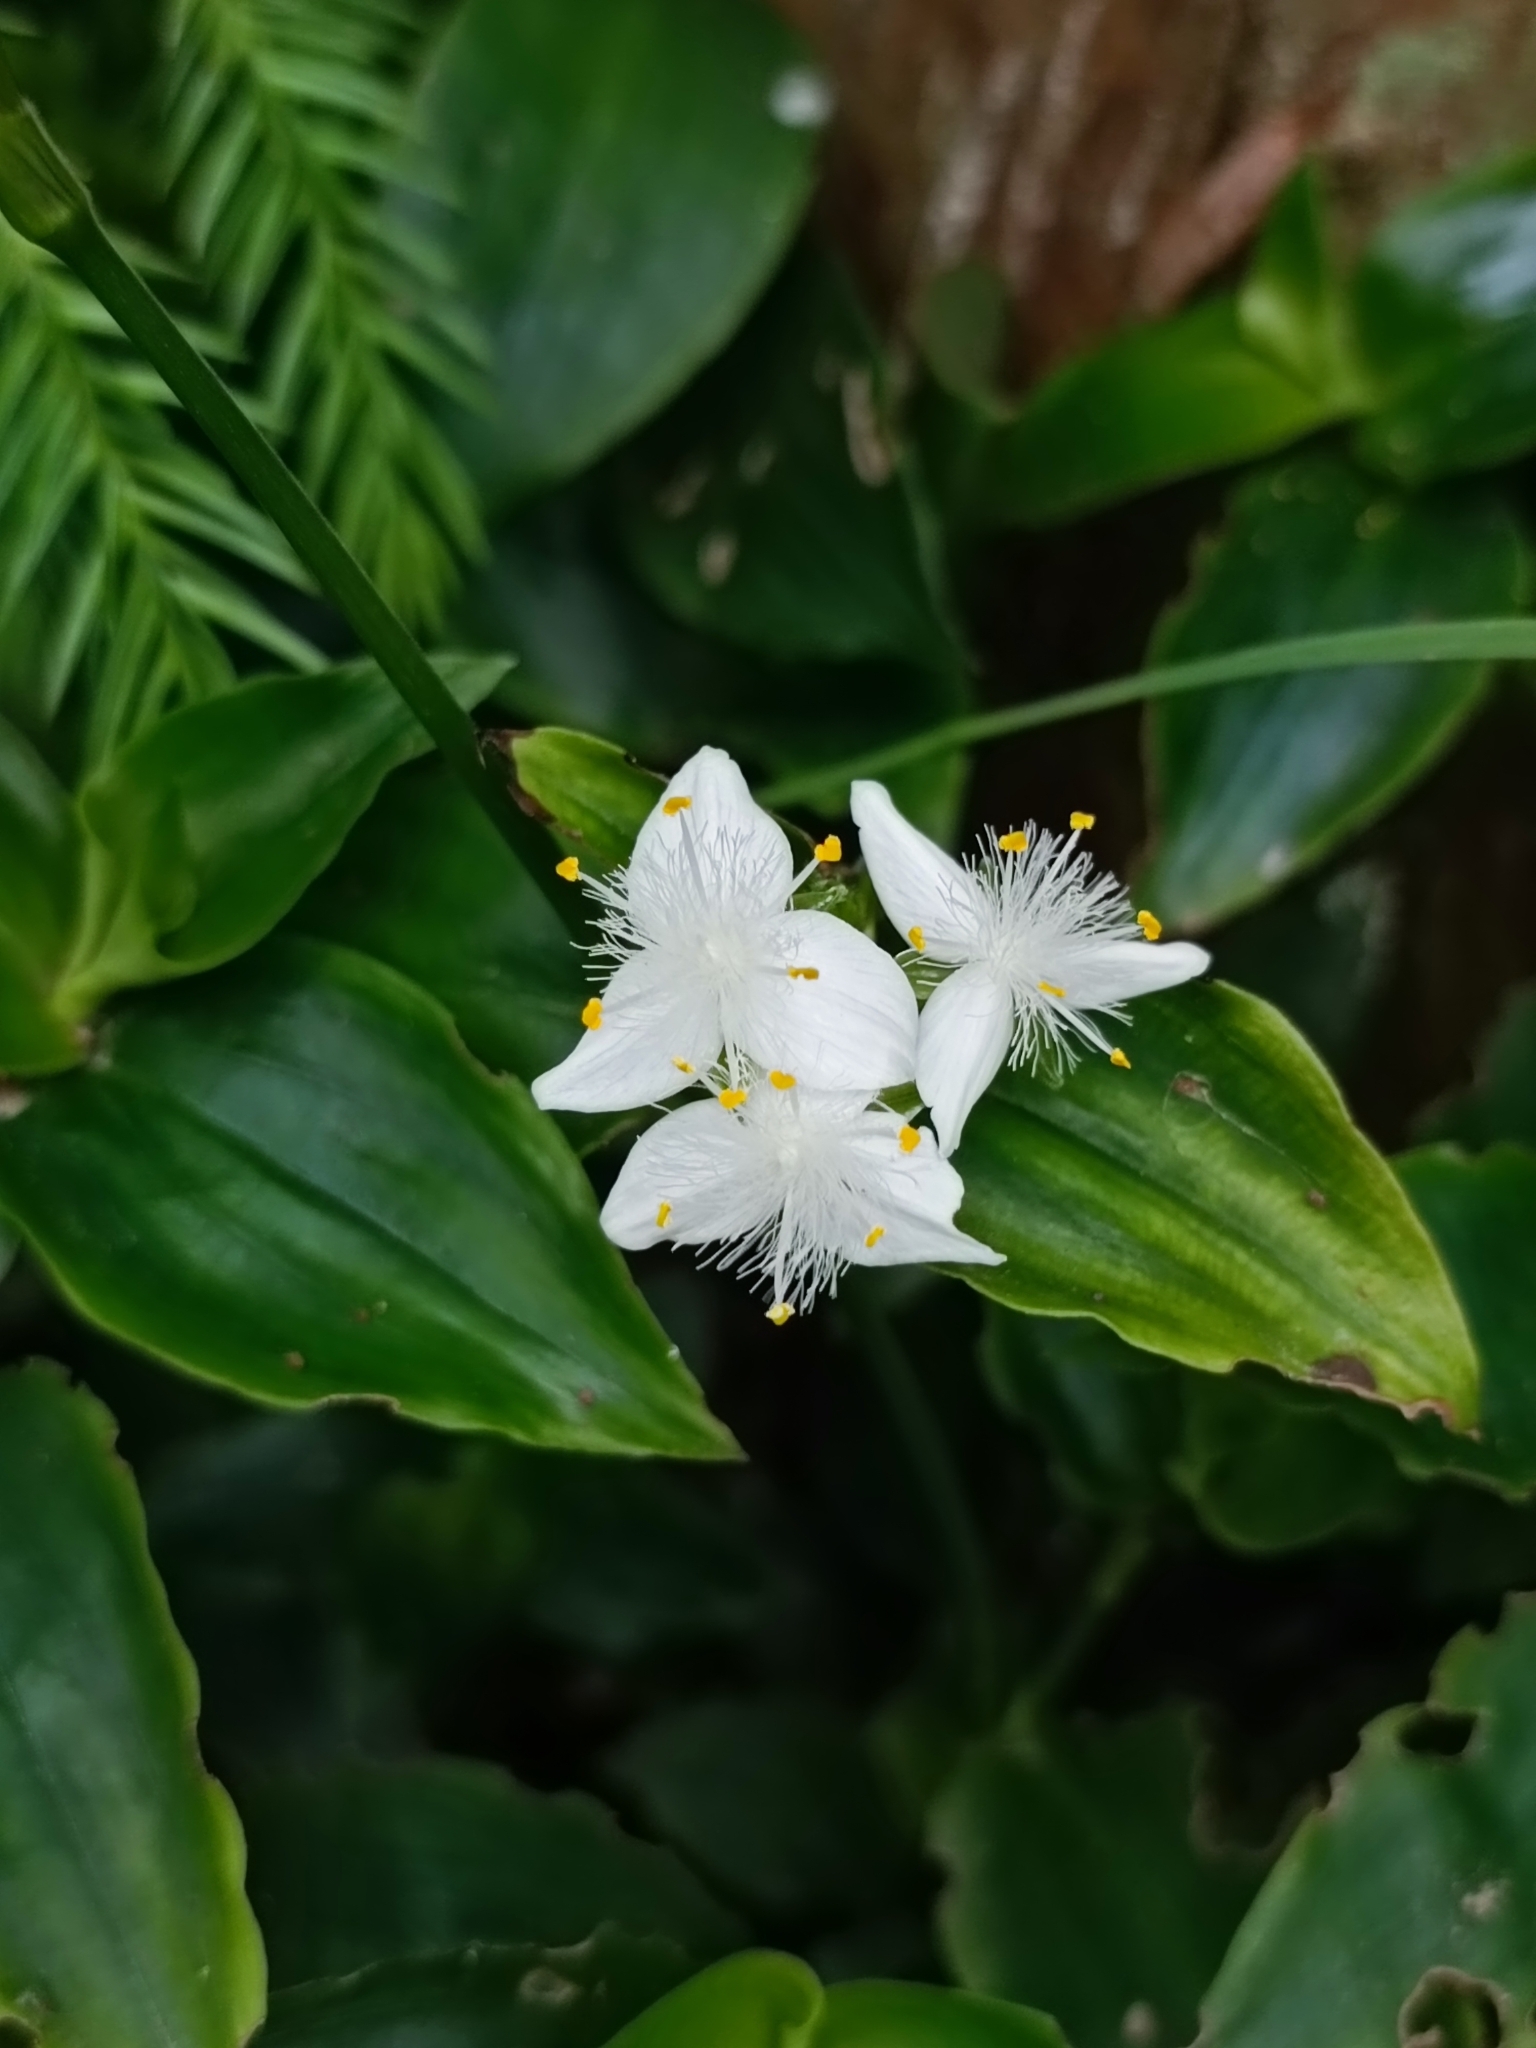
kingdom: Plantae
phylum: Tracheophyta
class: Liliopsida
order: Commelinales
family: Commelinaceae
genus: Tradescantia
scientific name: Tradescantia fluminensis
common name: Wandering-jew
